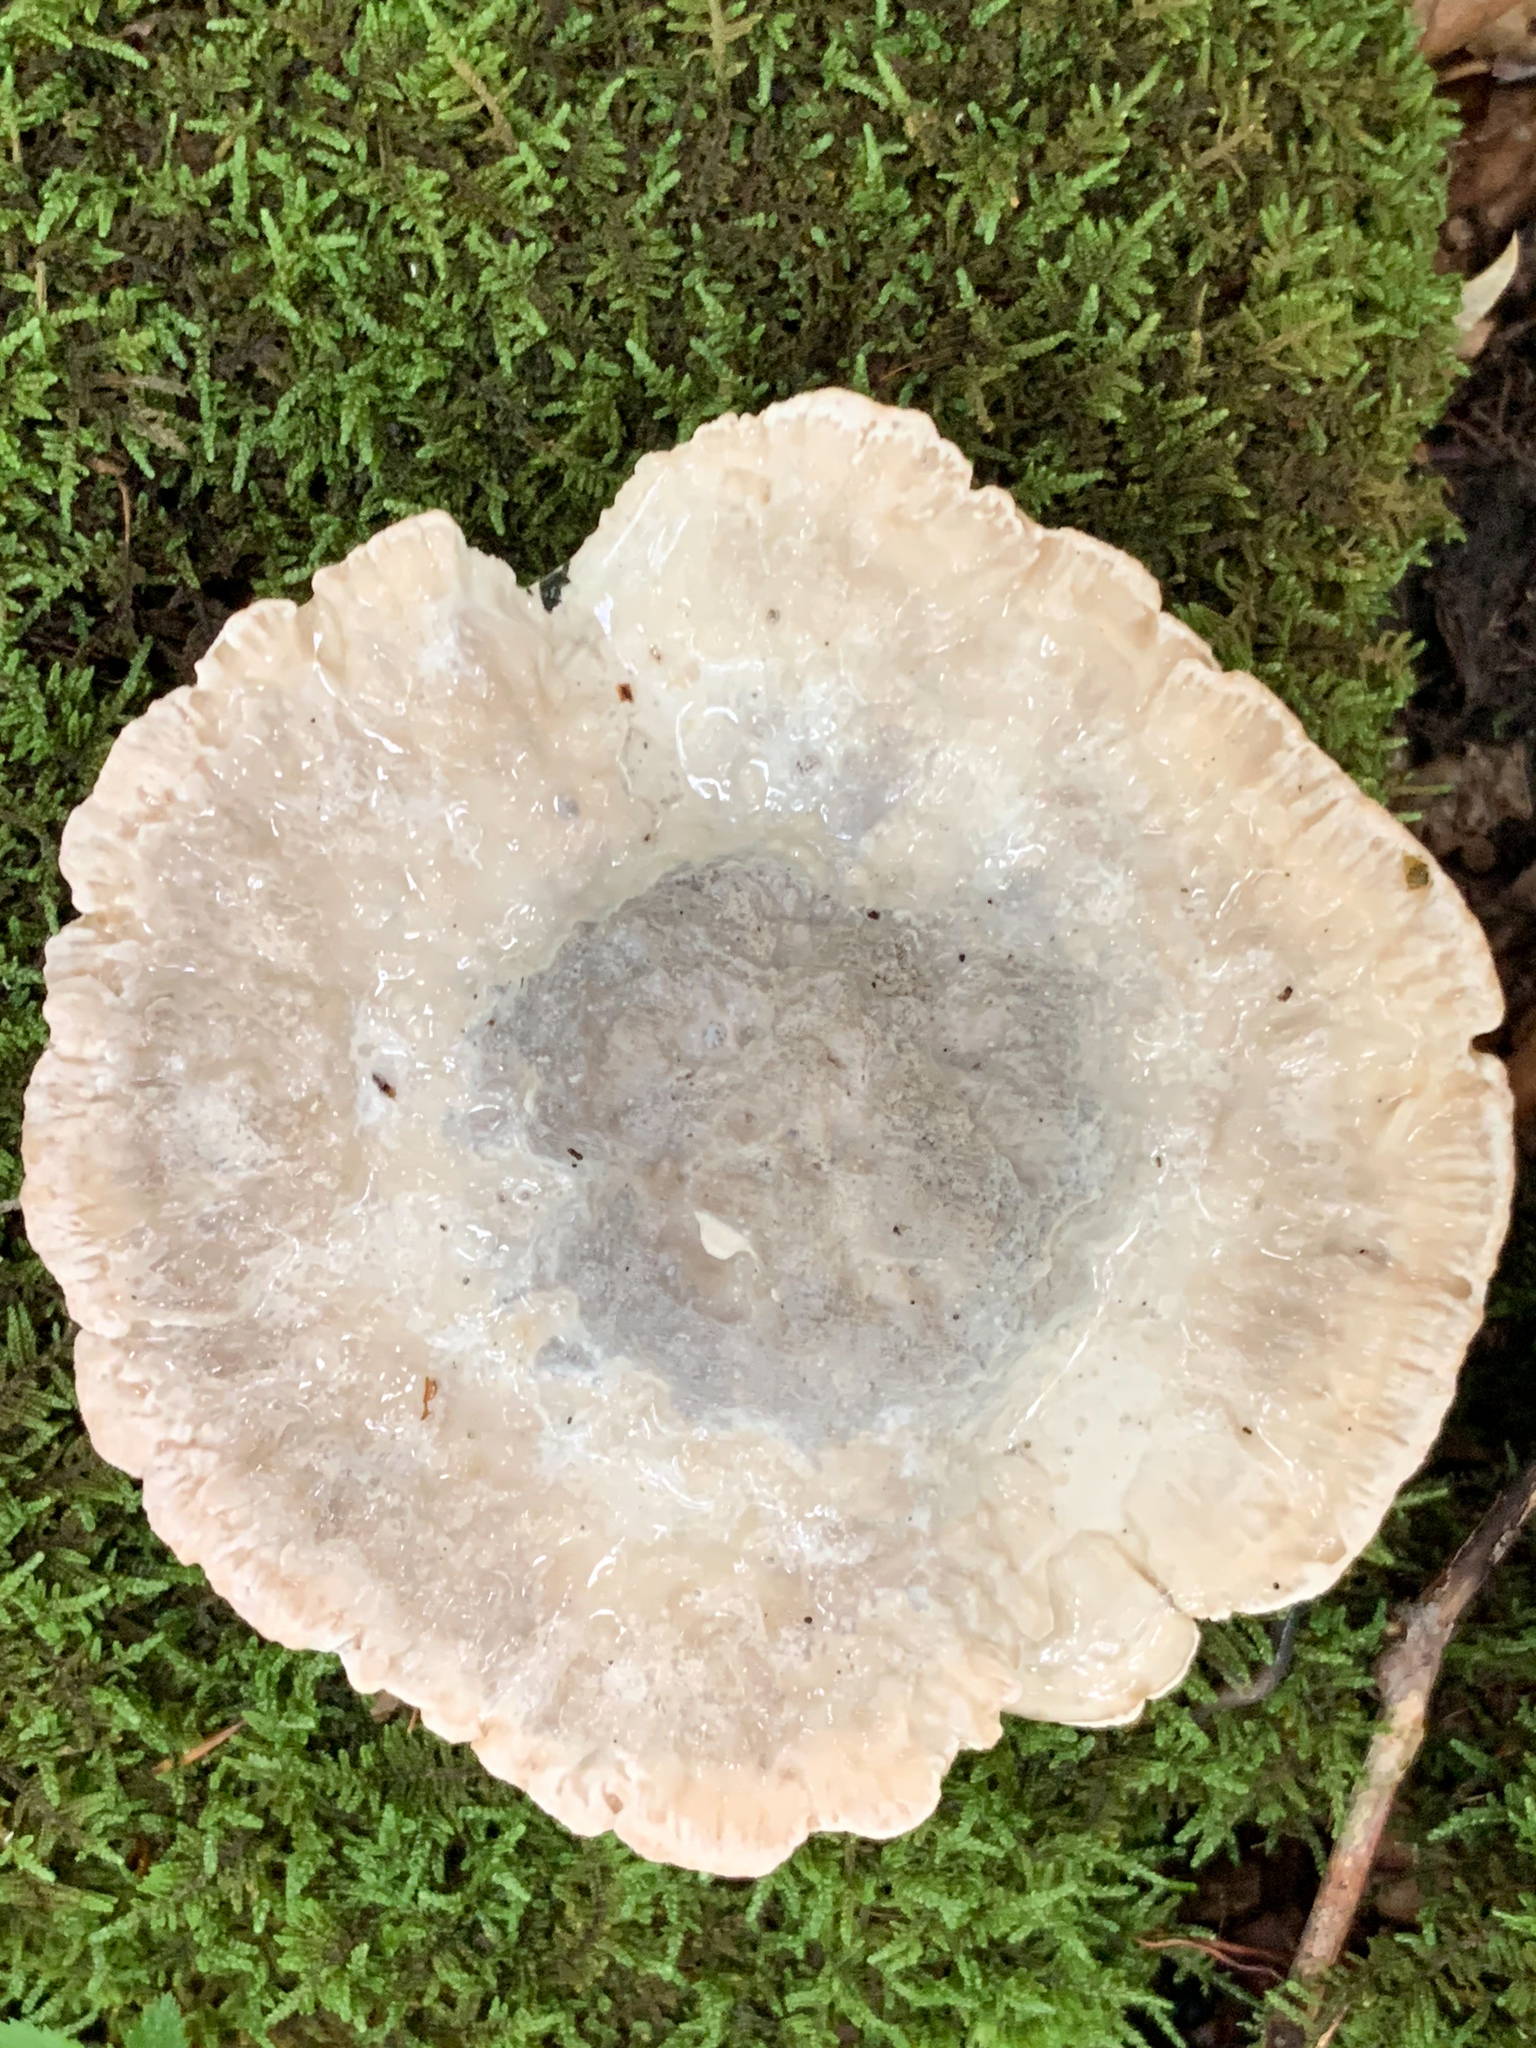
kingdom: Fungi
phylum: Basidiomycota
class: Agaricomycetes
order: Polyporales
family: Fomitopsidaceae
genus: Niveoporofomes
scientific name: Niveoporofomes spraguei
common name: Green cheese polypore
